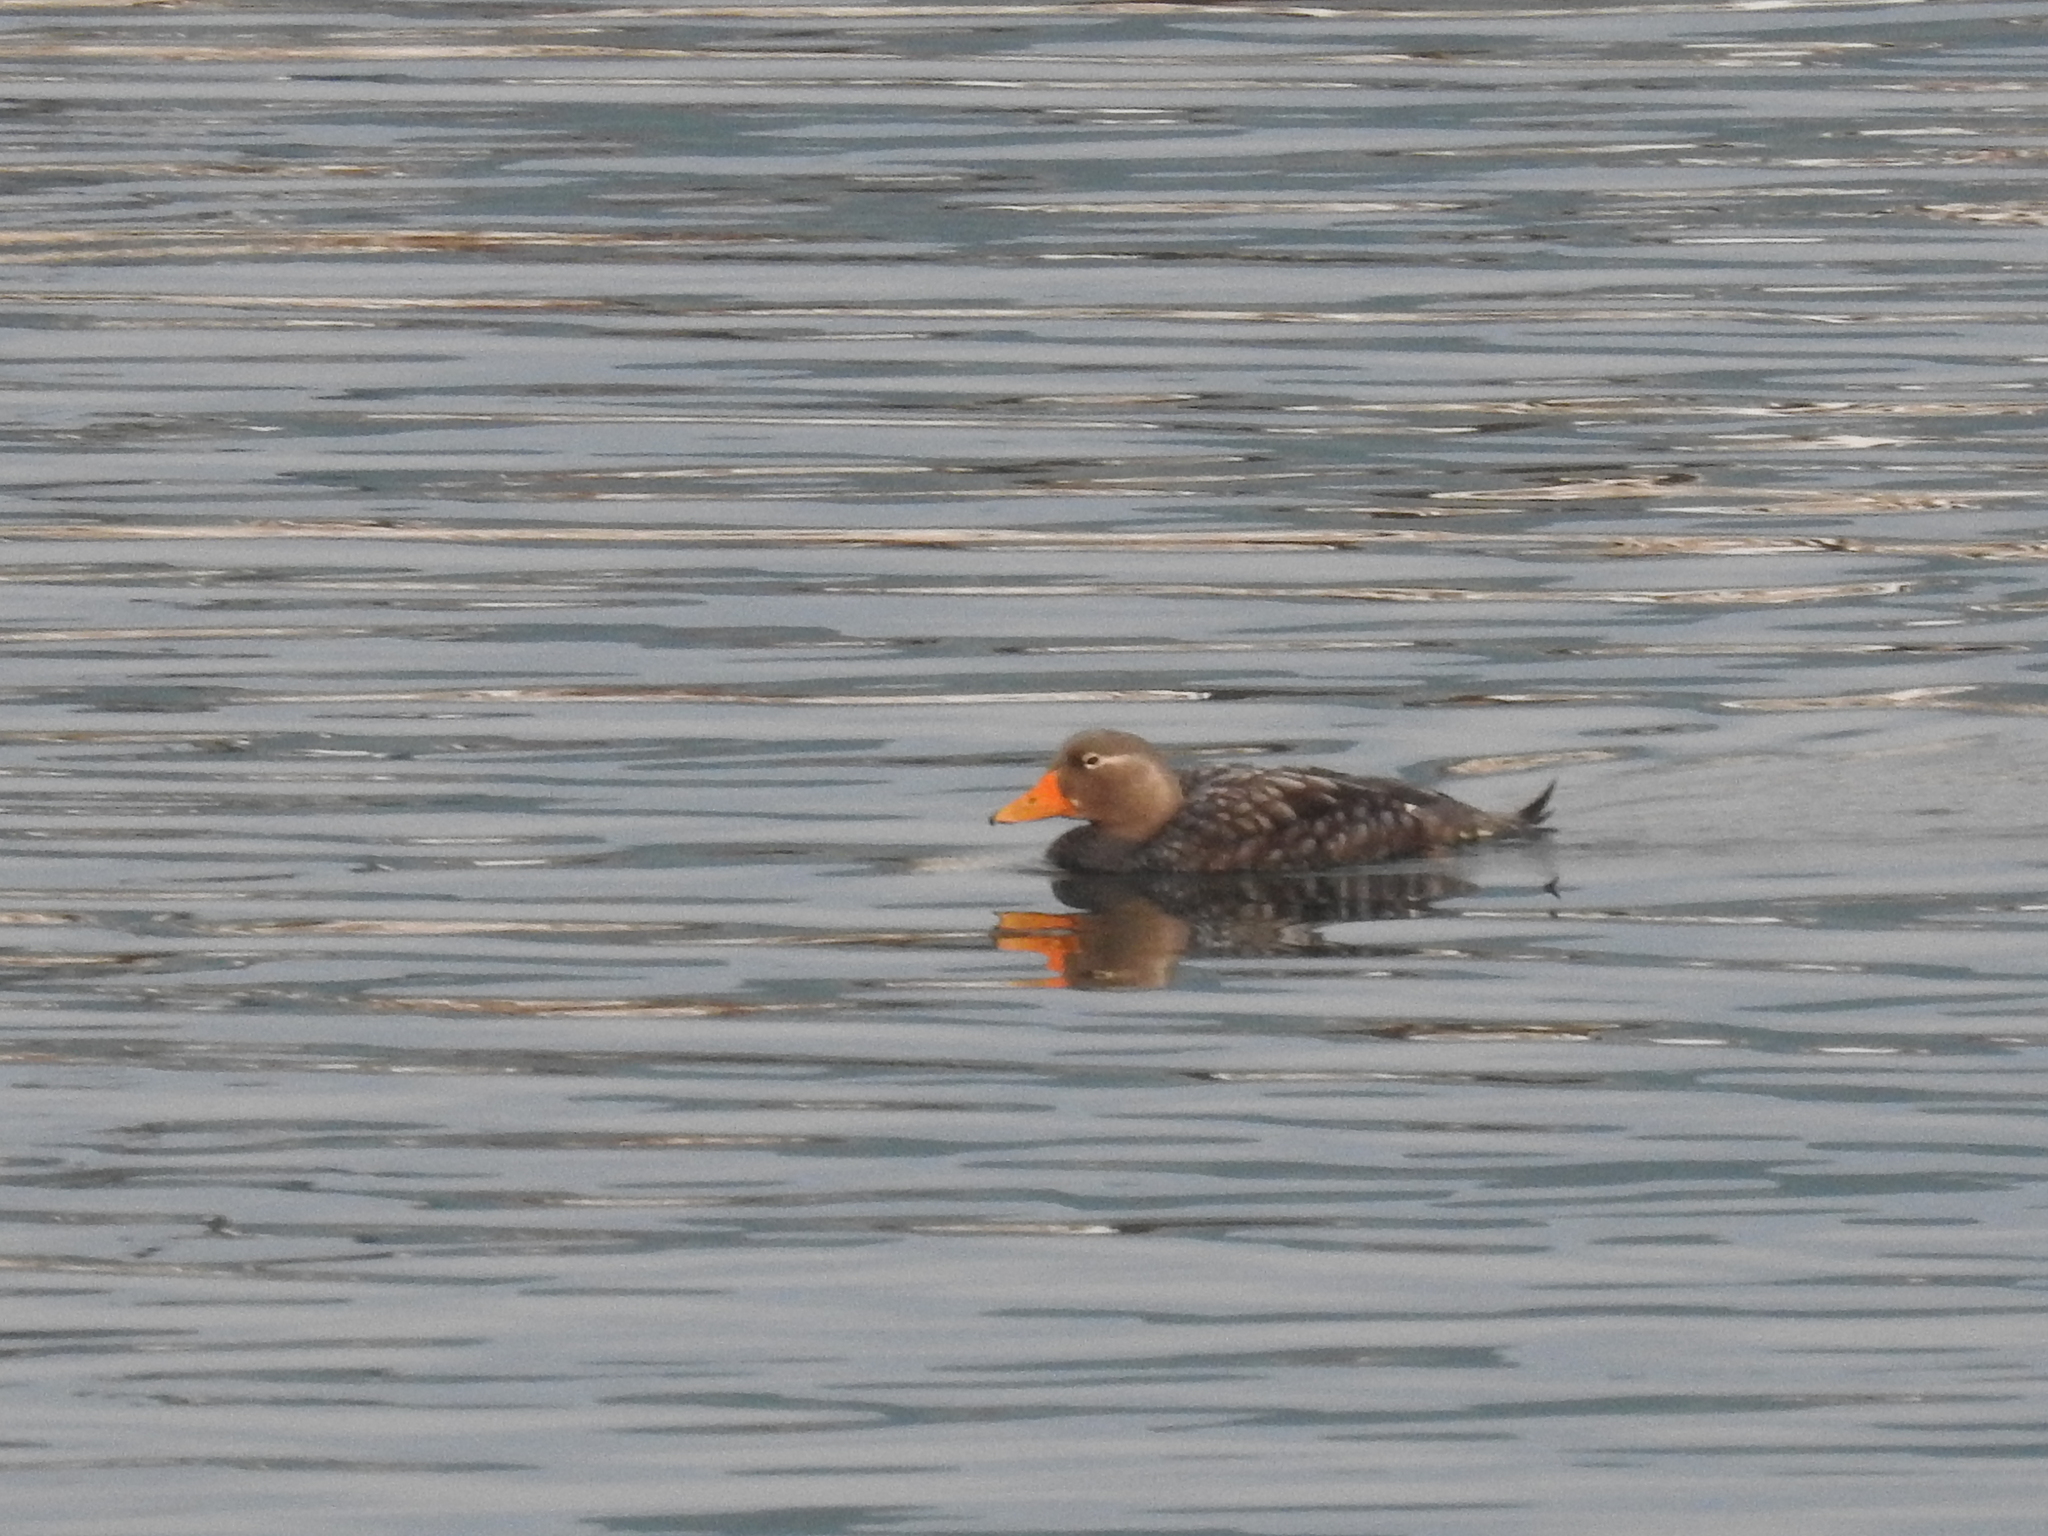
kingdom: Animalia
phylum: Chordata
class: Aves
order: Anseriformes
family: Anatidae
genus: Tachyeres
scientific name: Tachyeres pteneres
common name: Fuegian steamer duck
